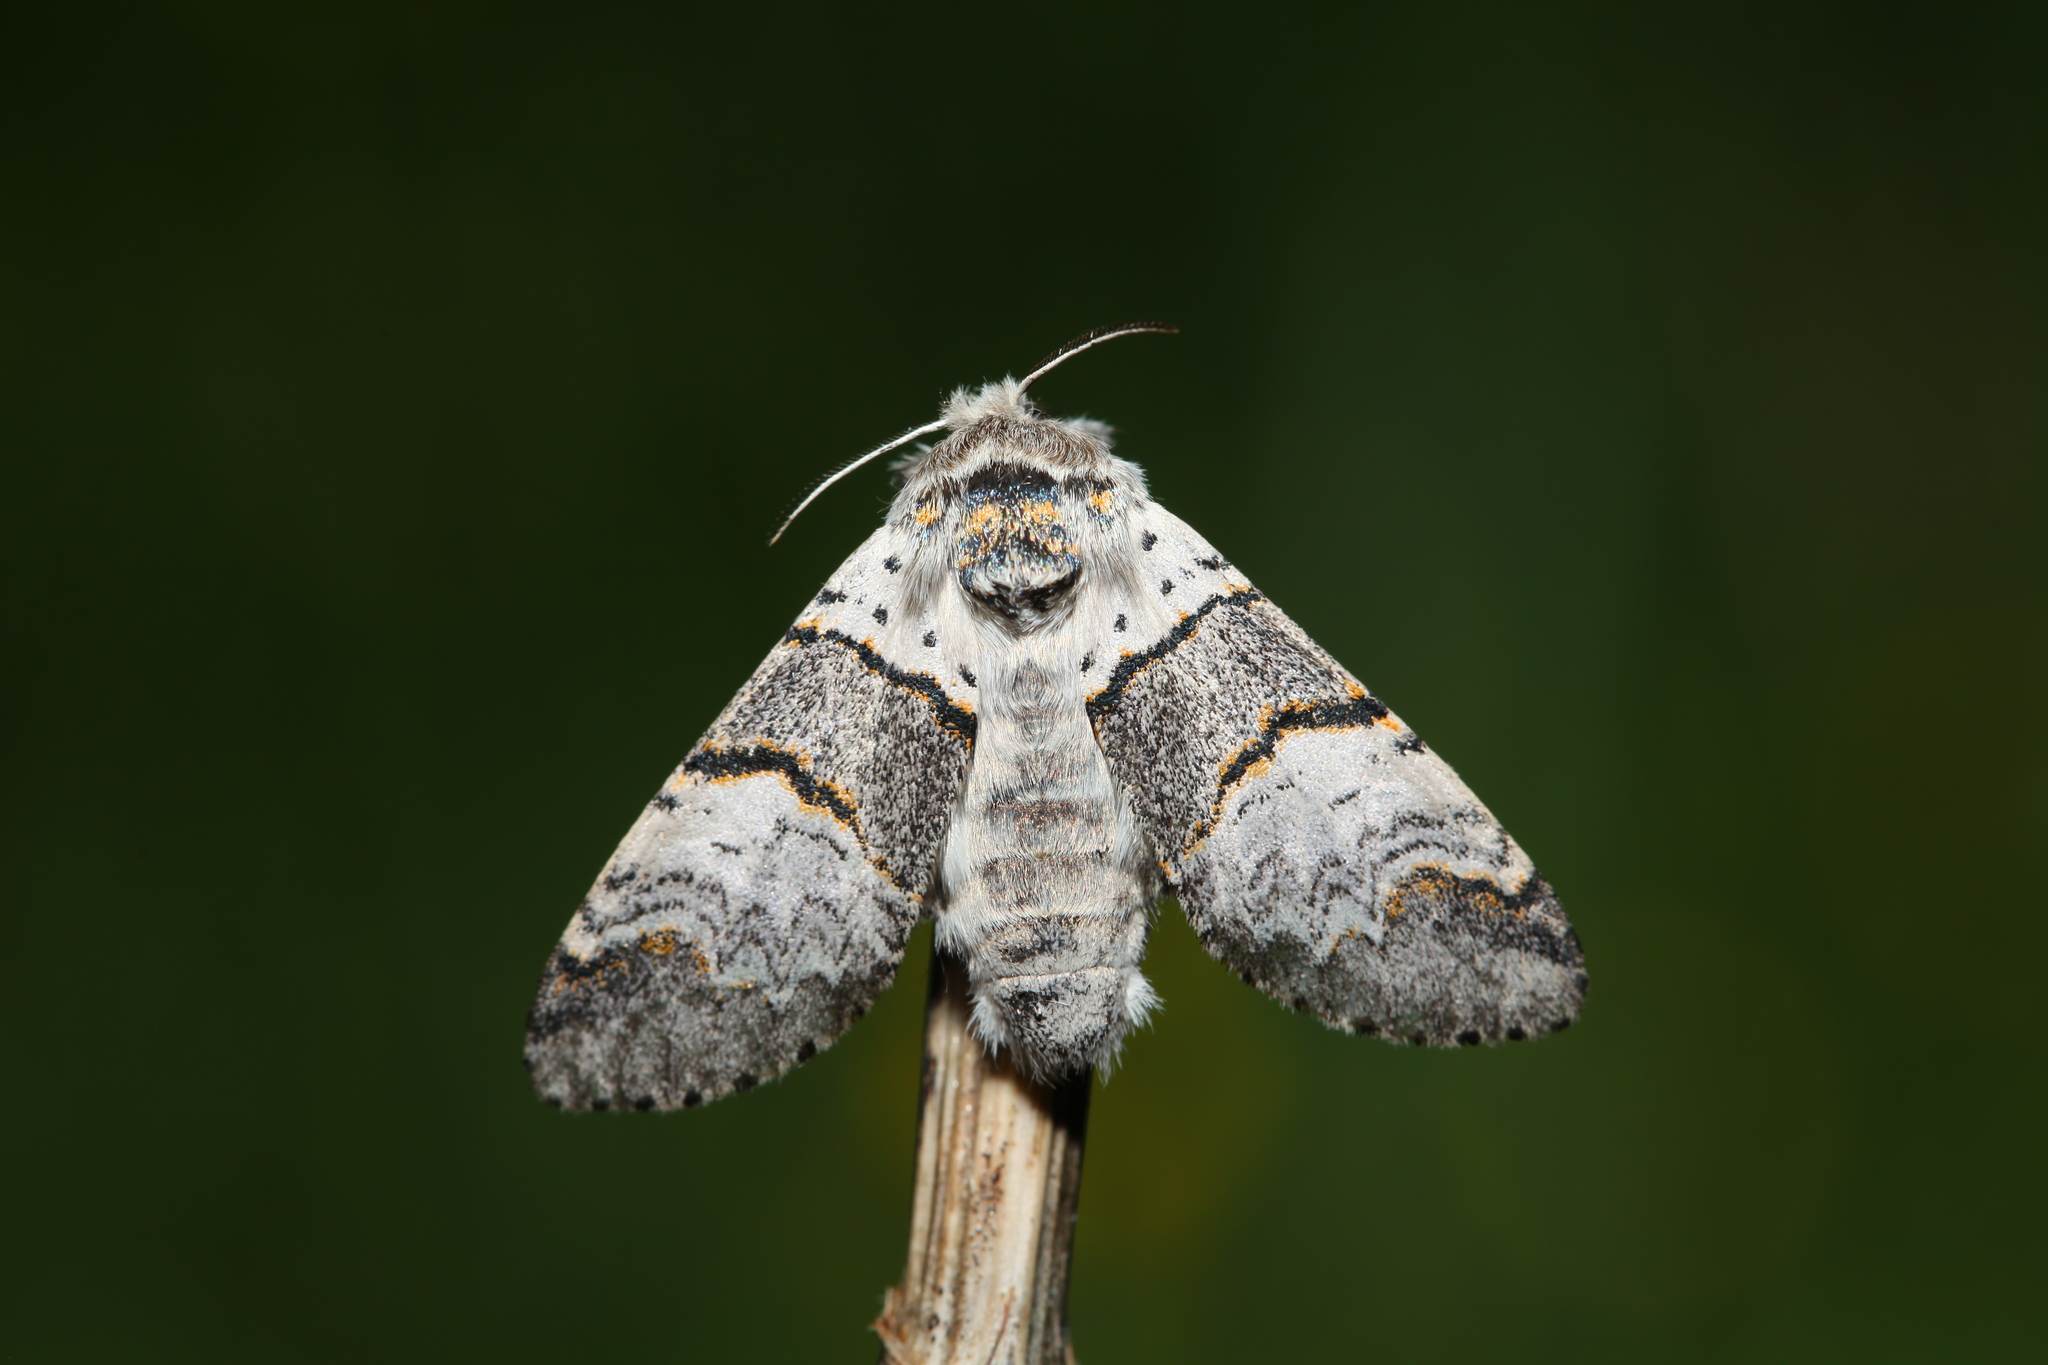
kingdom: Animalia
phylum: Arthropoda
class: Insecta
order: Lepidoptera
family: Notodontidae
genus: Furcula
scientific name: Furcula bifida
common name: Poplar kitten
